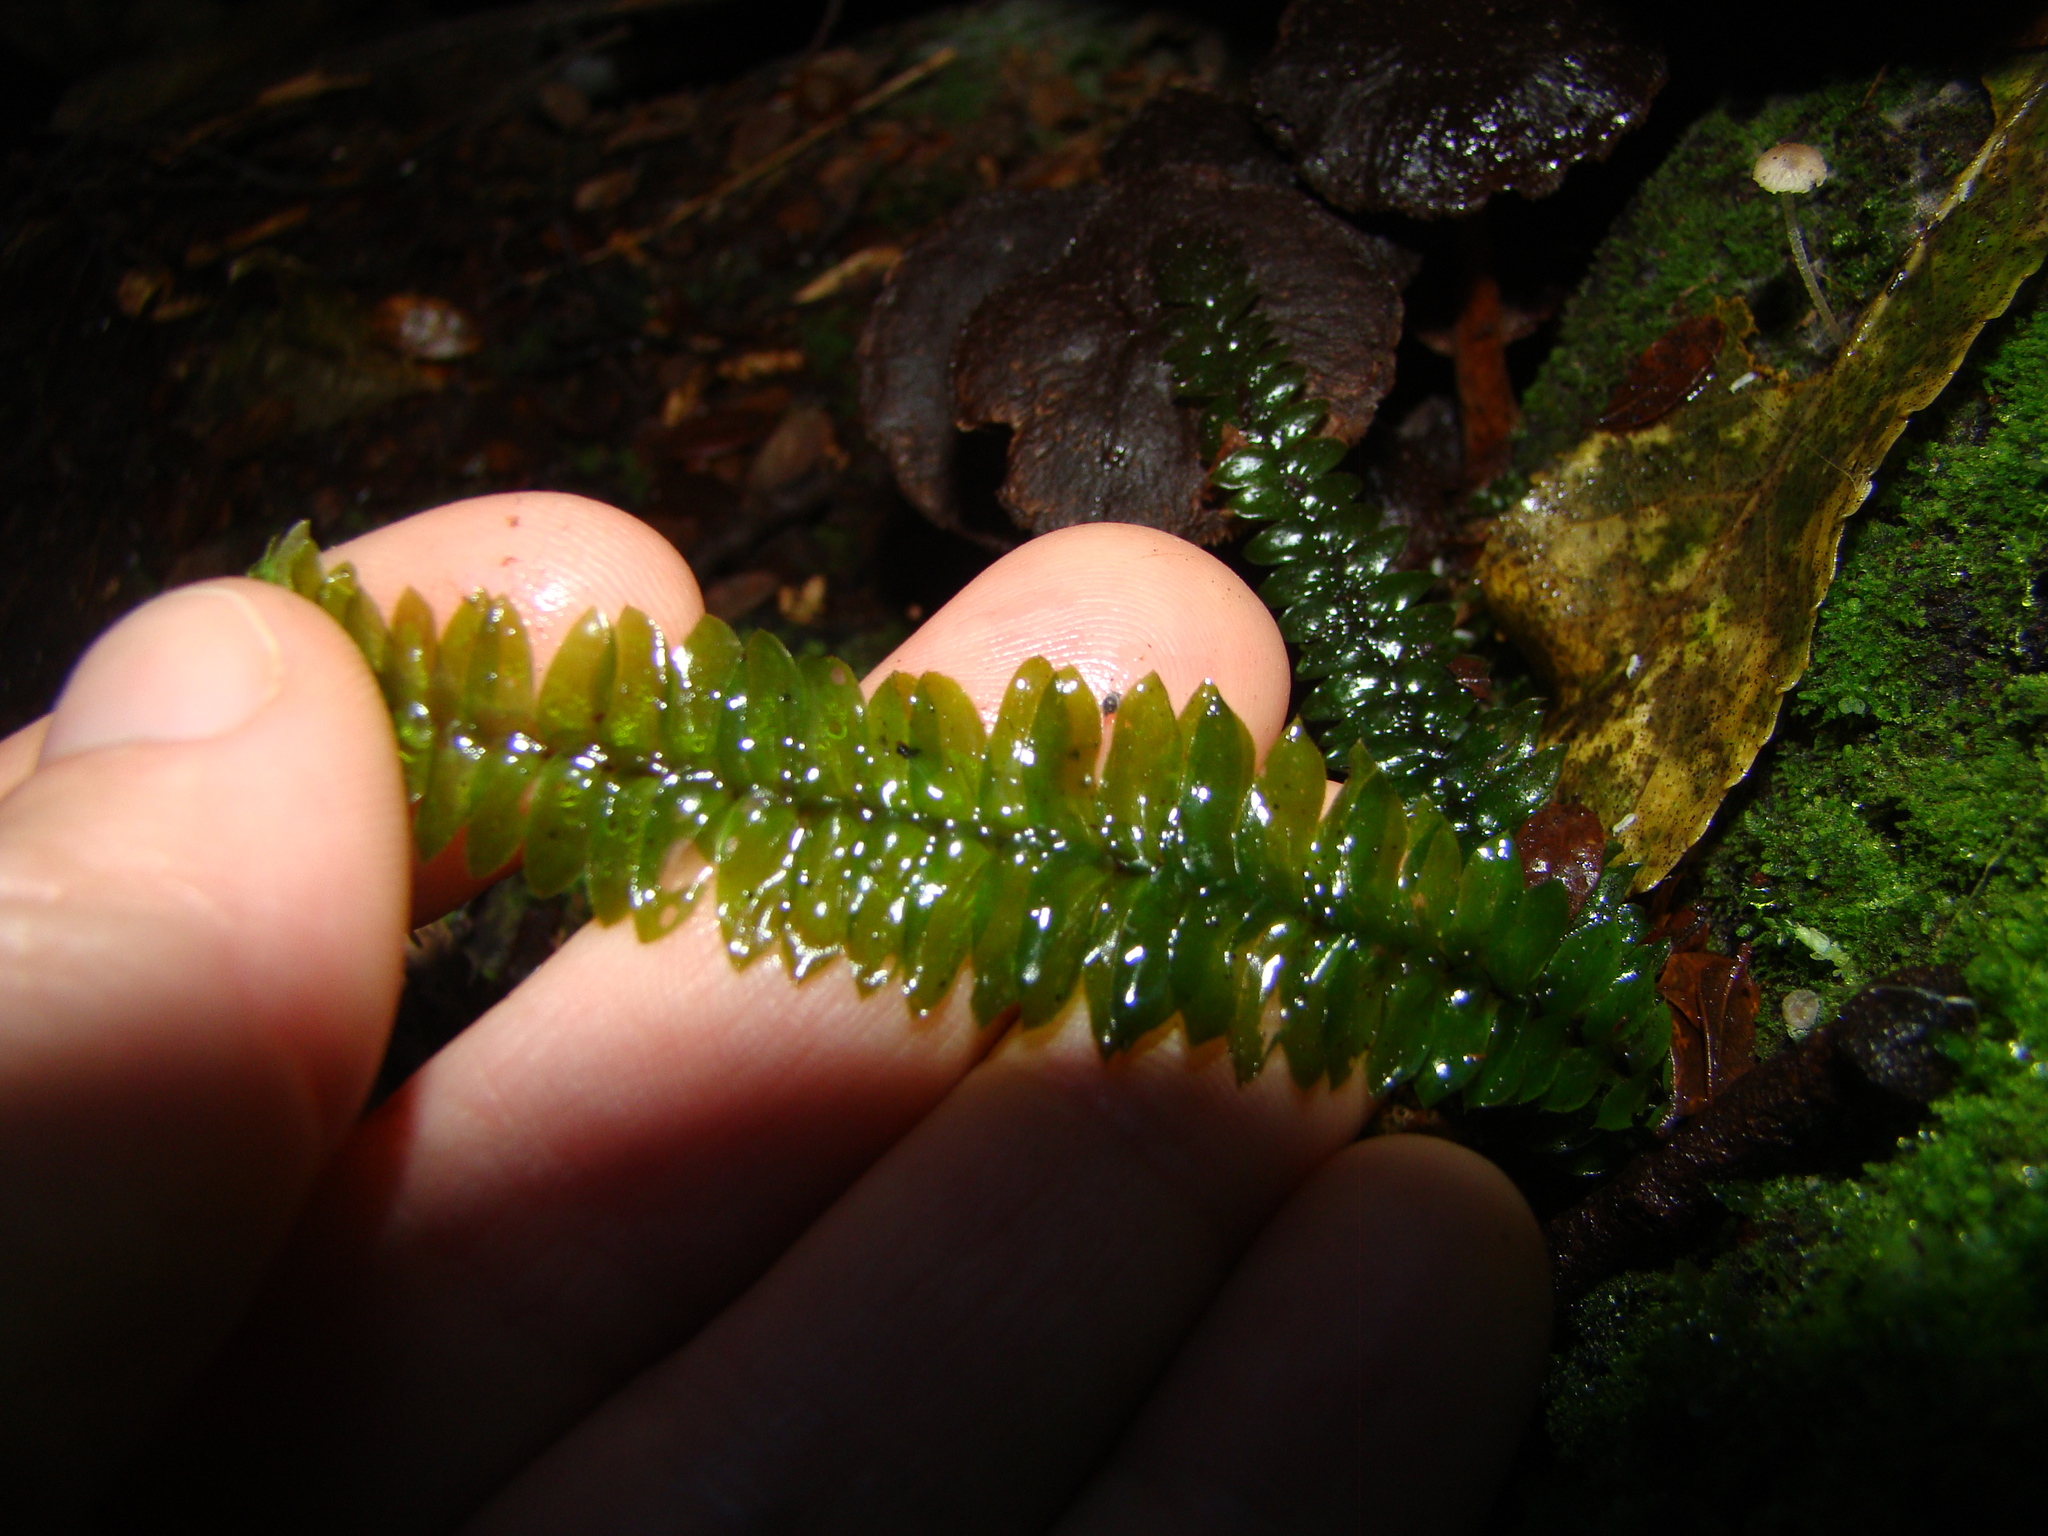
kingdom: Plantae
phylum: Bryophyta
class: Bryopsida
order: Hypopterygiales
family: Hypopterygiaceae
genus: Cyathophorum
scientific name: Cyathophorum bulbosum
